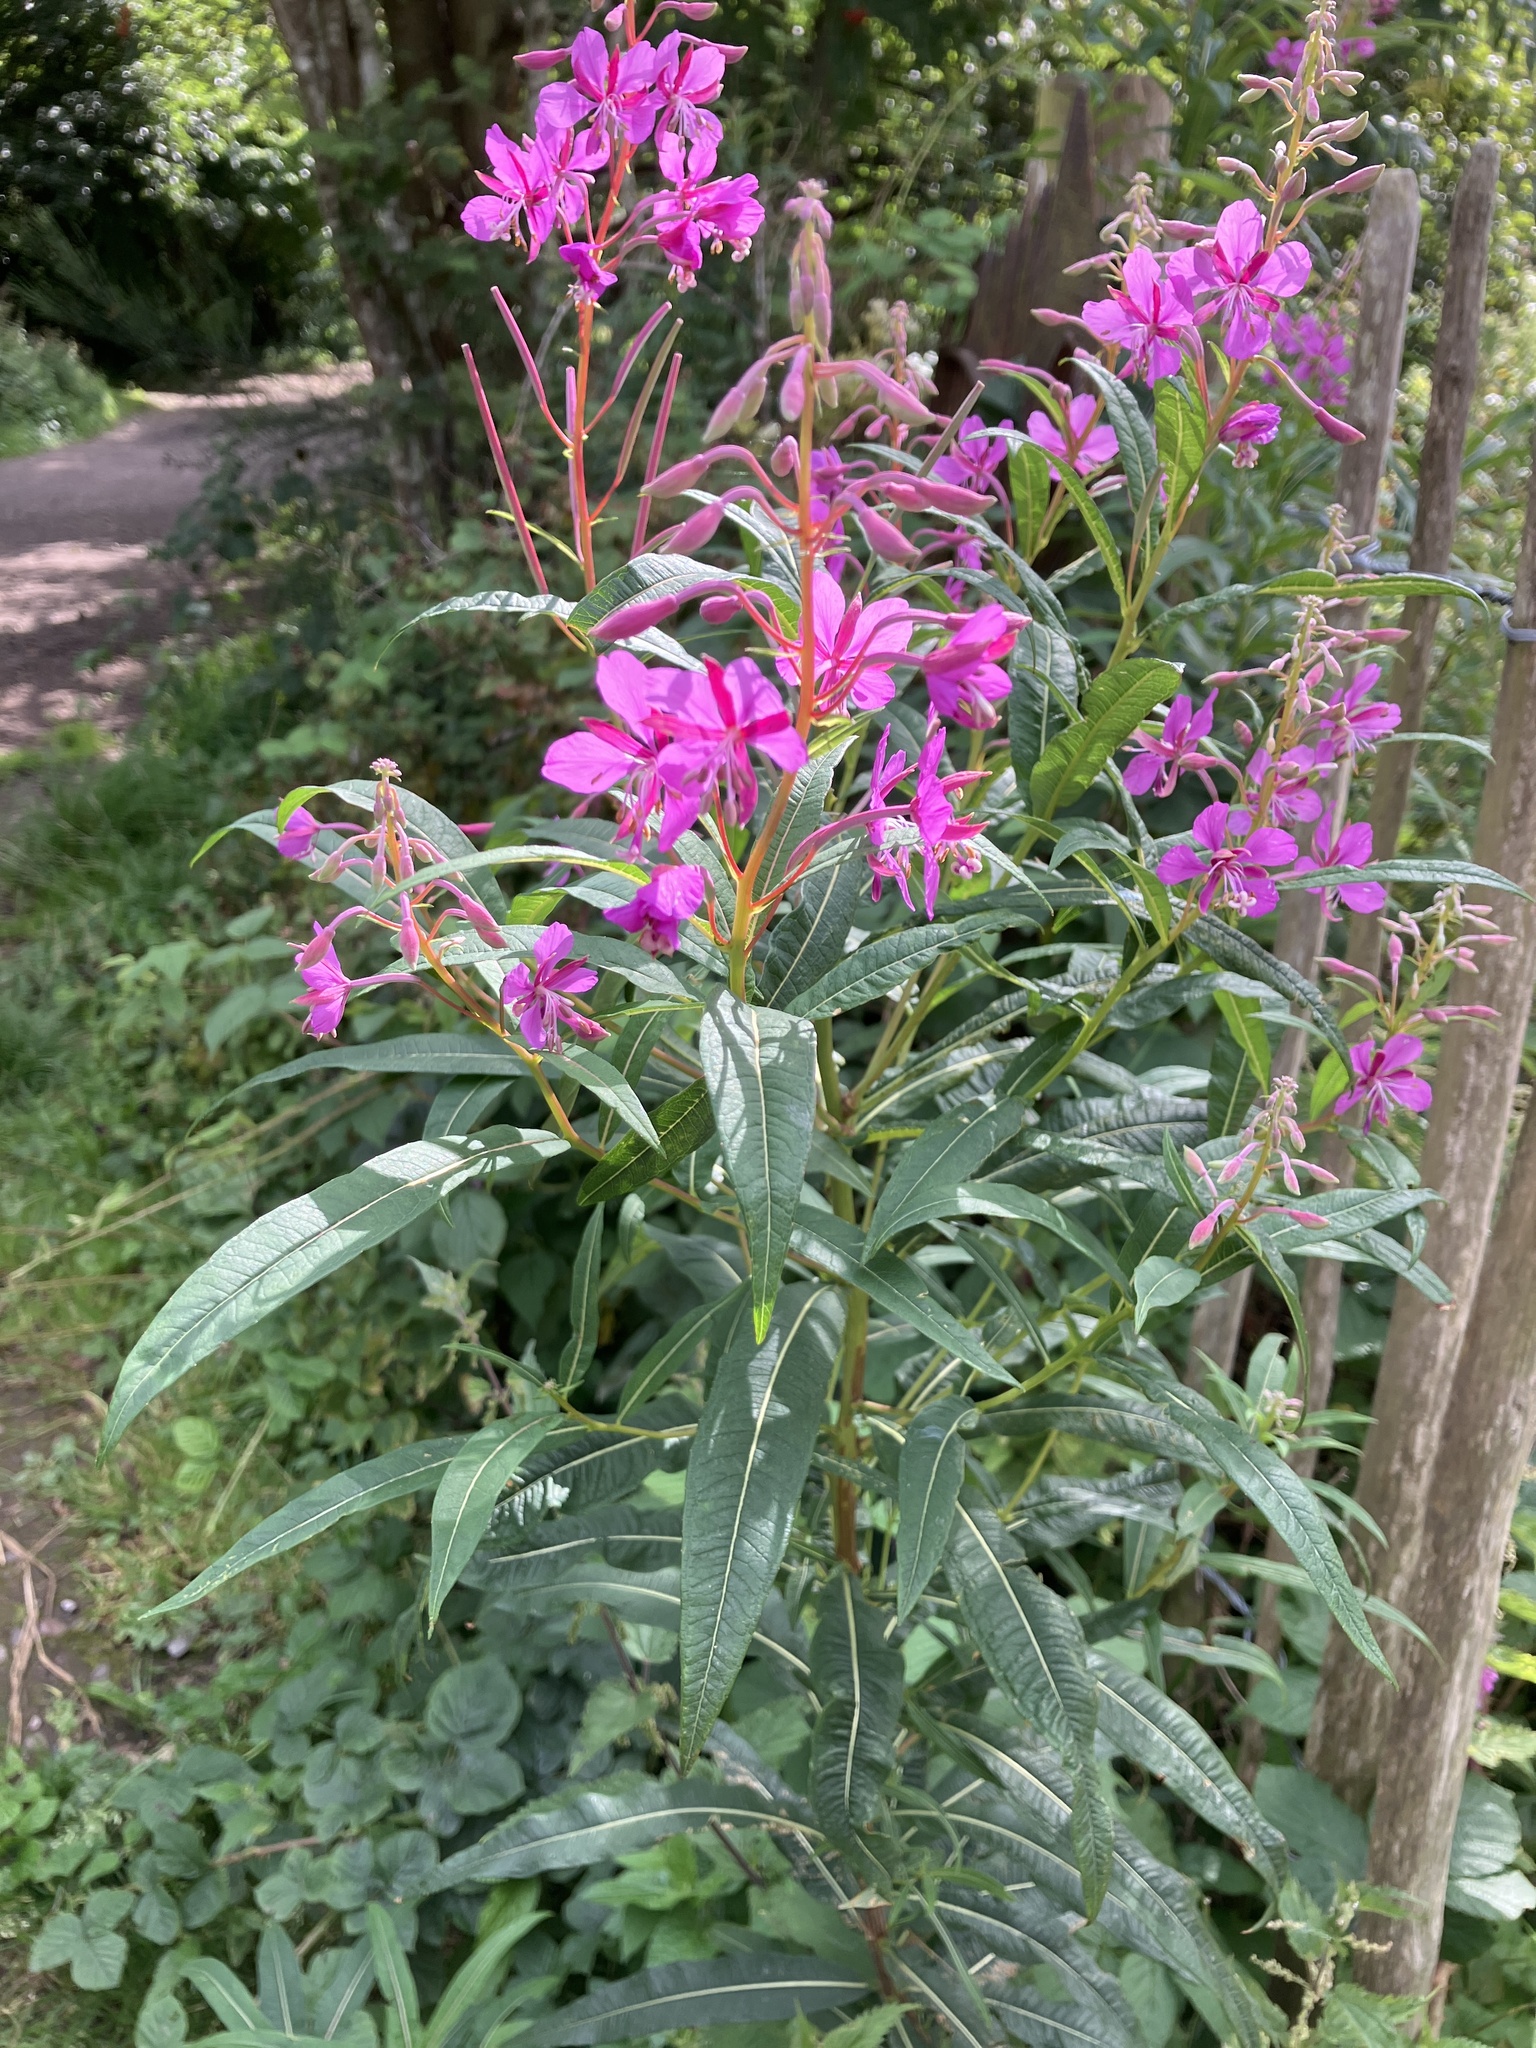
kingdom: Plantae
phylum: Tracheophyta
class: Magnoliopsida
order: Myrtales
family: Onagraceae
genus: Chamaenerion
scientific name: Chamaenerion angustifolium
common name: Fireweed
